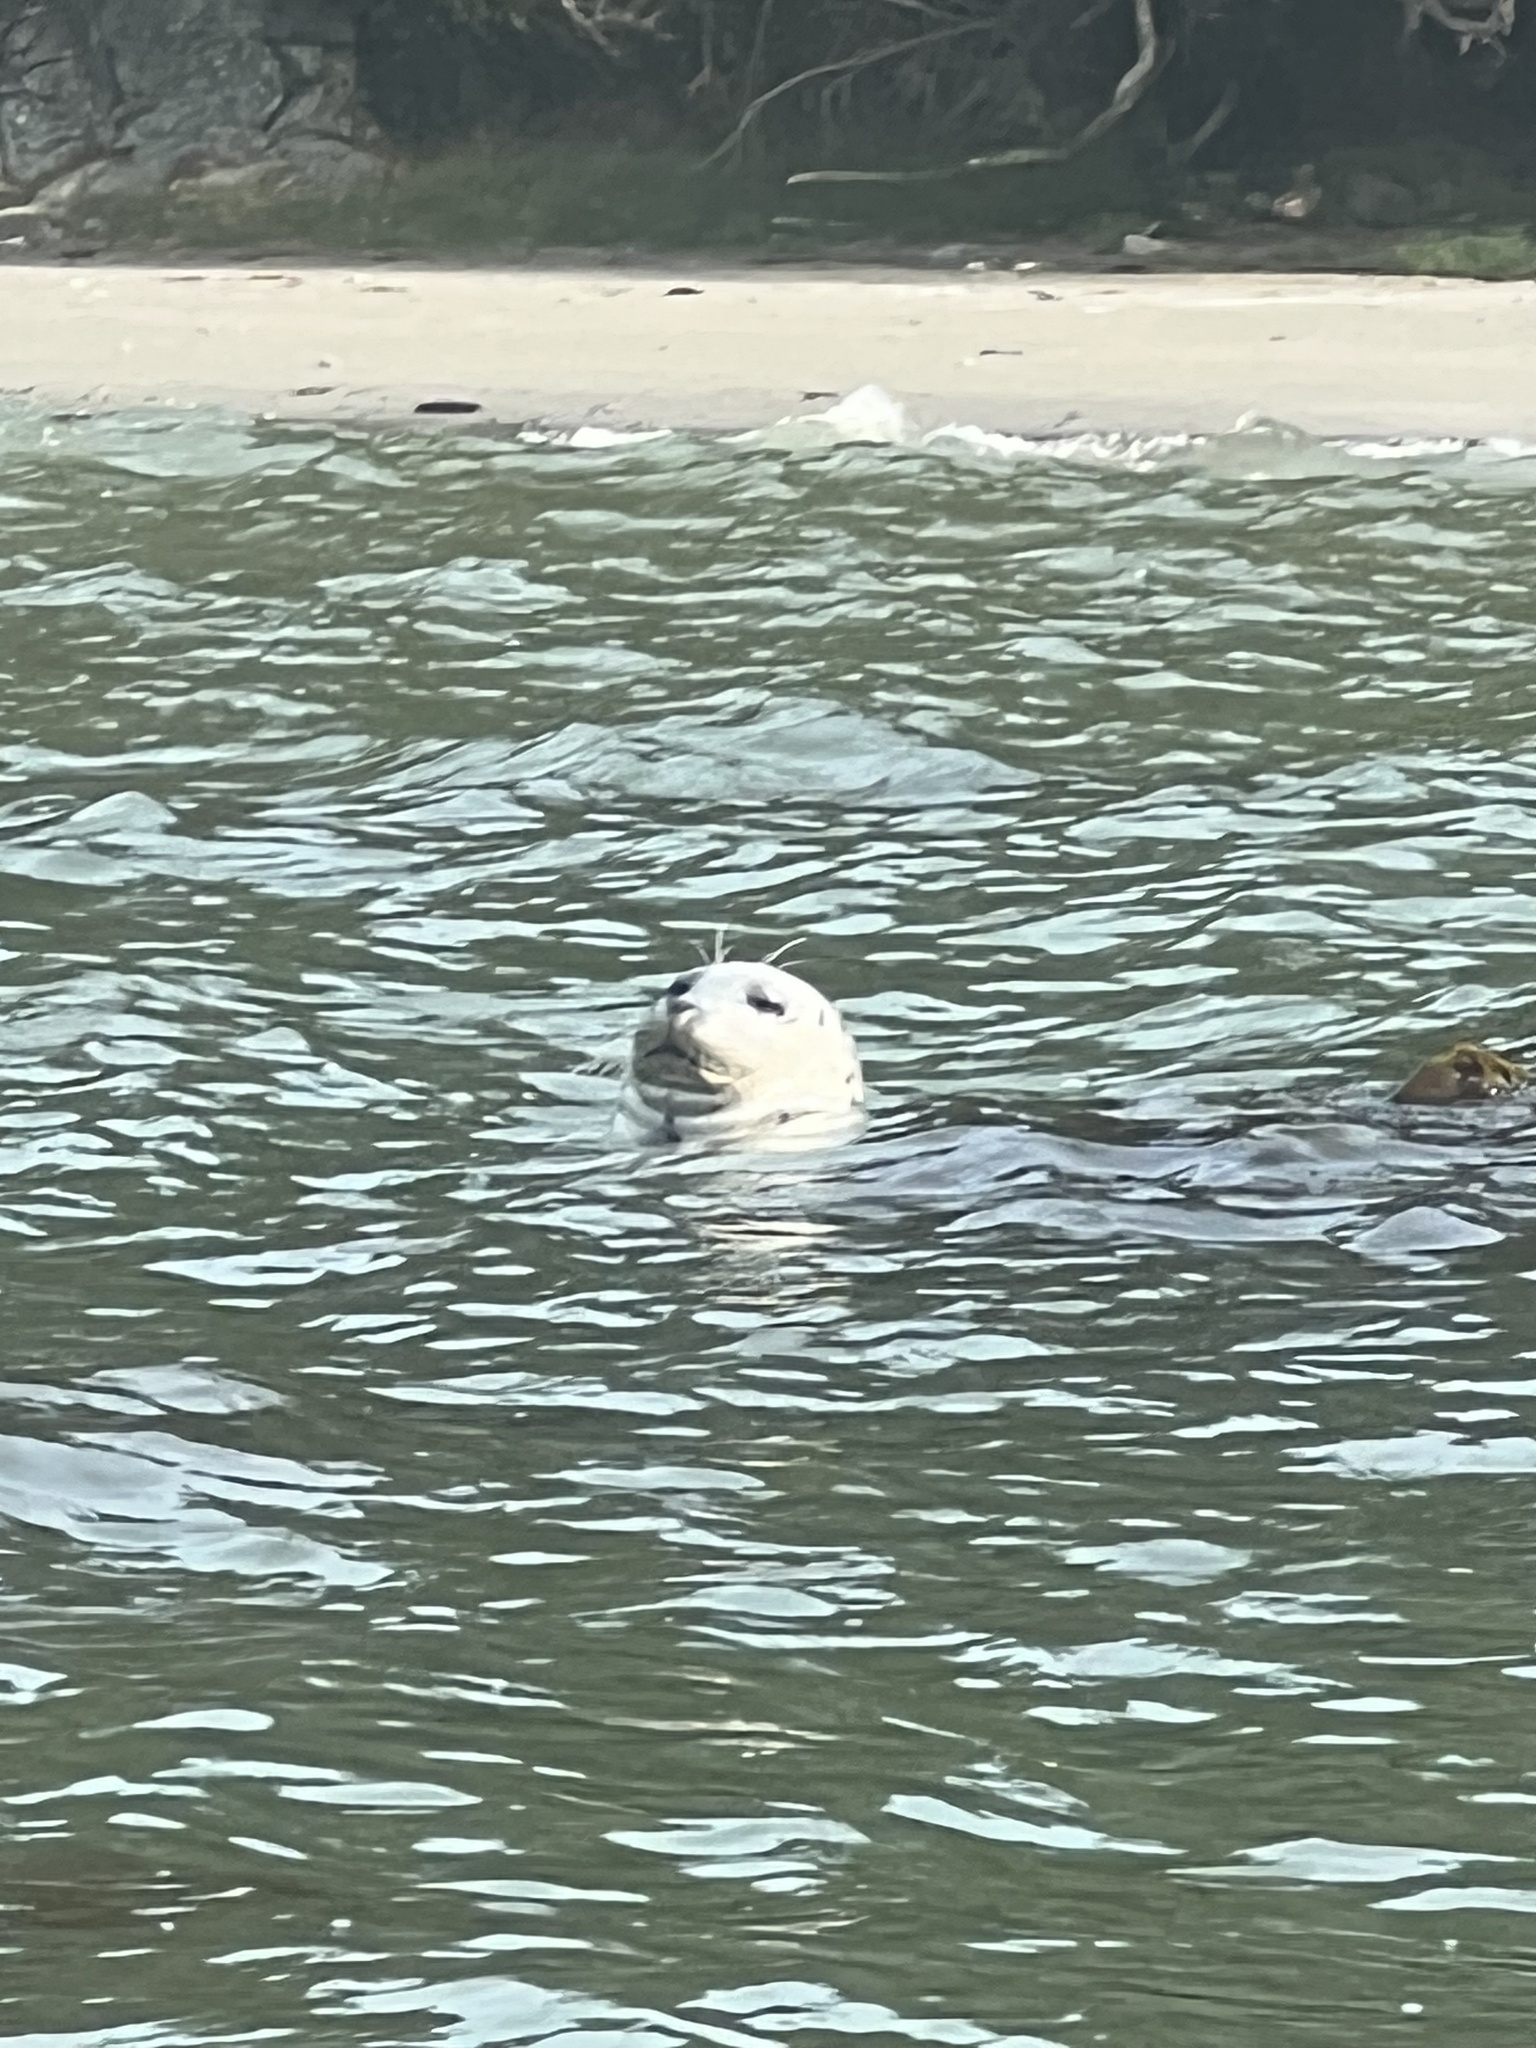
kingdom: Animalia
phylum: Chordata
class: Mammalia
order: Carnivora
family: Phocidae
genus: Phoca
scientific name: Phoca vitulina
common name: Harbor seal
